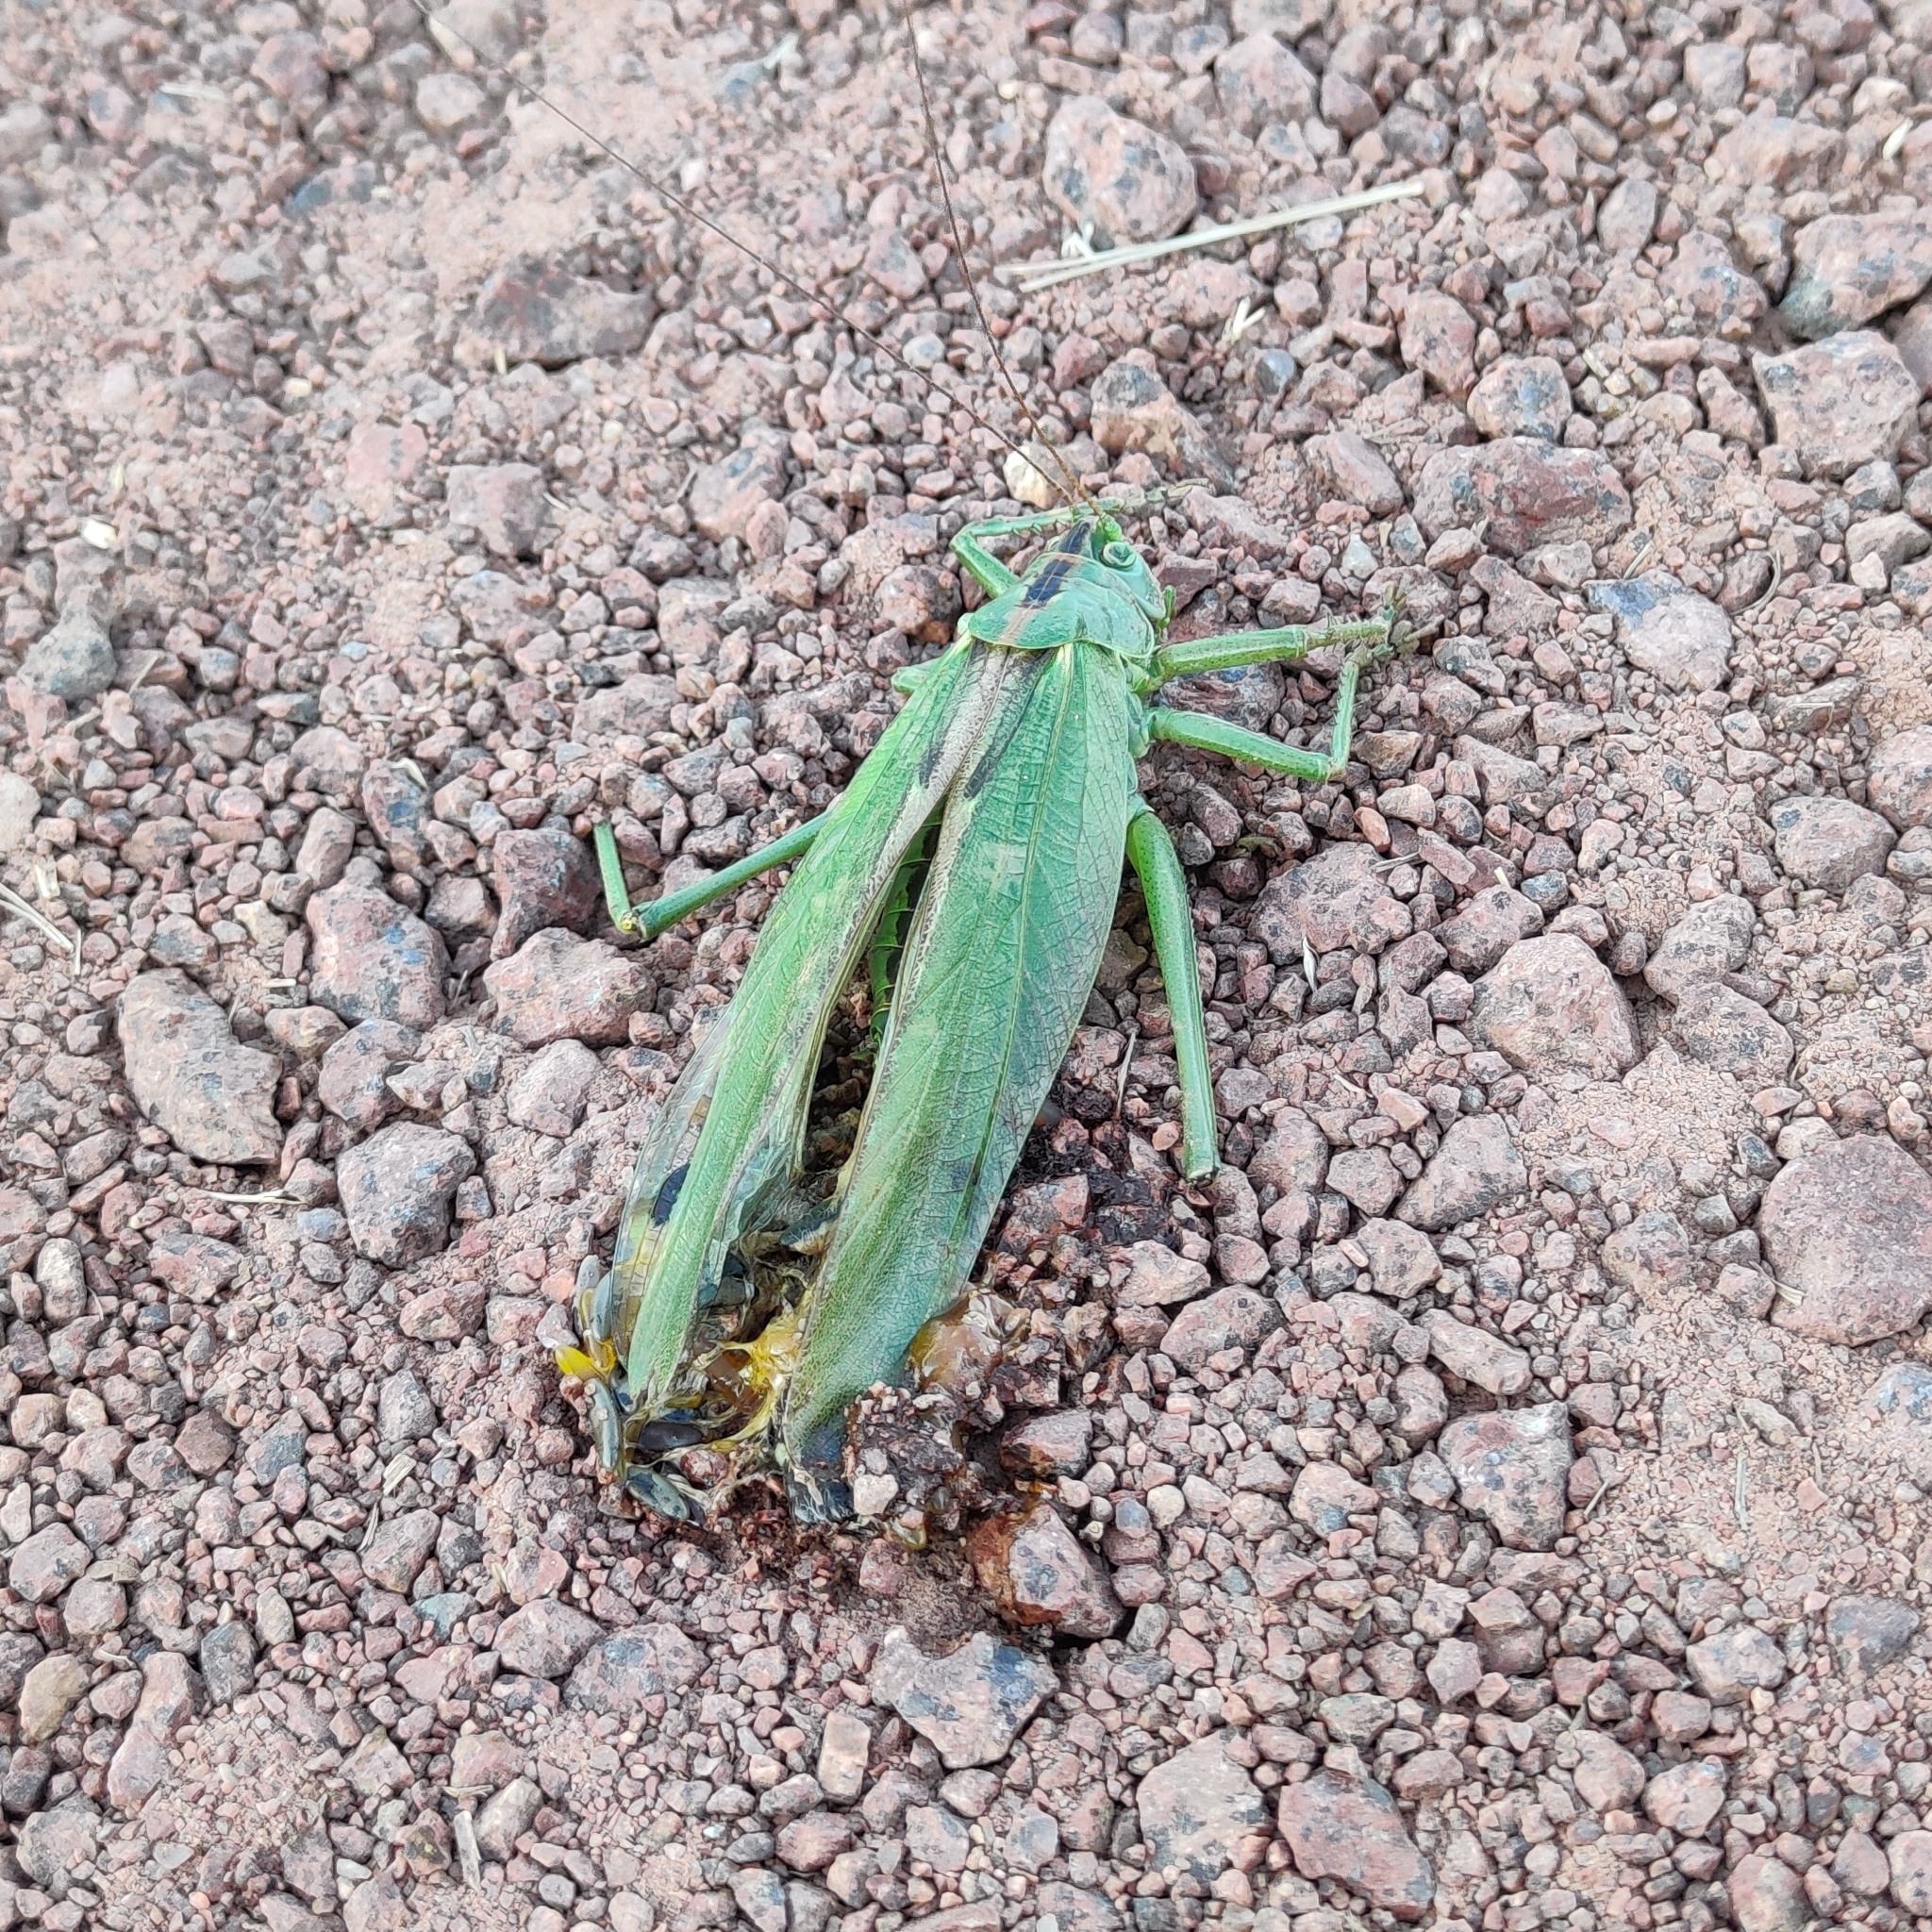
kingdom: Animalia
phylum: Arthropoda
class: Insecta
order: Orthoptera
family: Tettigoniidae
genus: Tettigonia
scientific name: Tettigonia viridissima
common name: Great green bush-cricket
